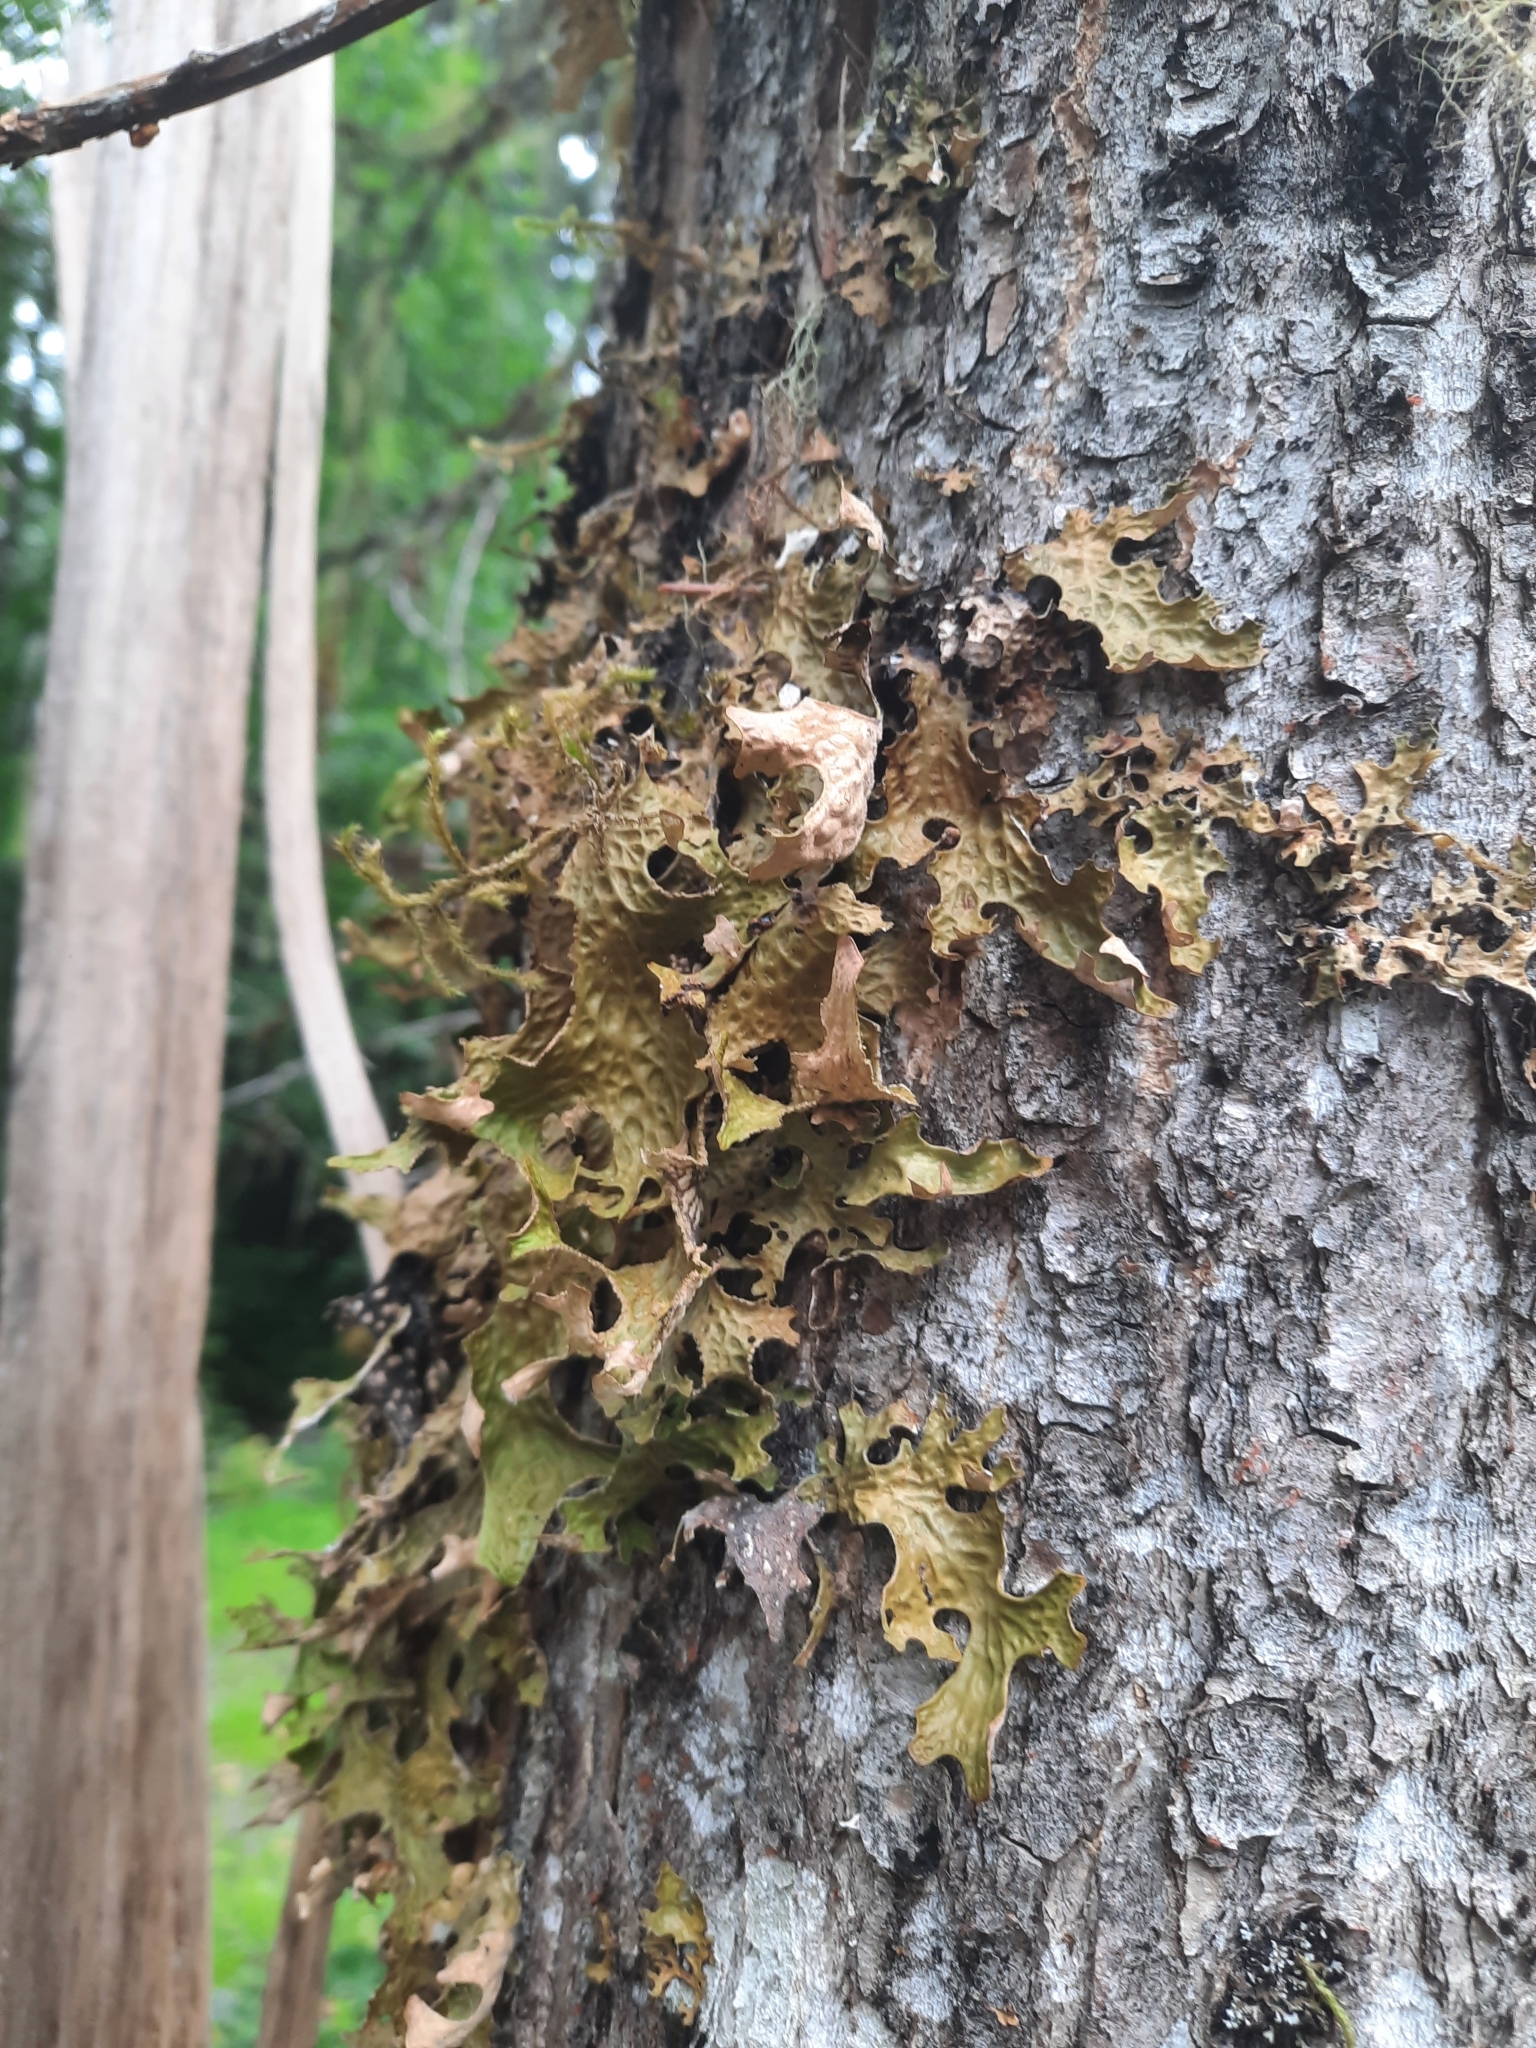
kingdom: Fungi
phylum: Ascomycota
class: Lecanoromycetes
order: Peltigerales
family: Lobariaceae
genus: Lobaria
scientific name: Lobaria pulmonaria
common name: Lungwort
